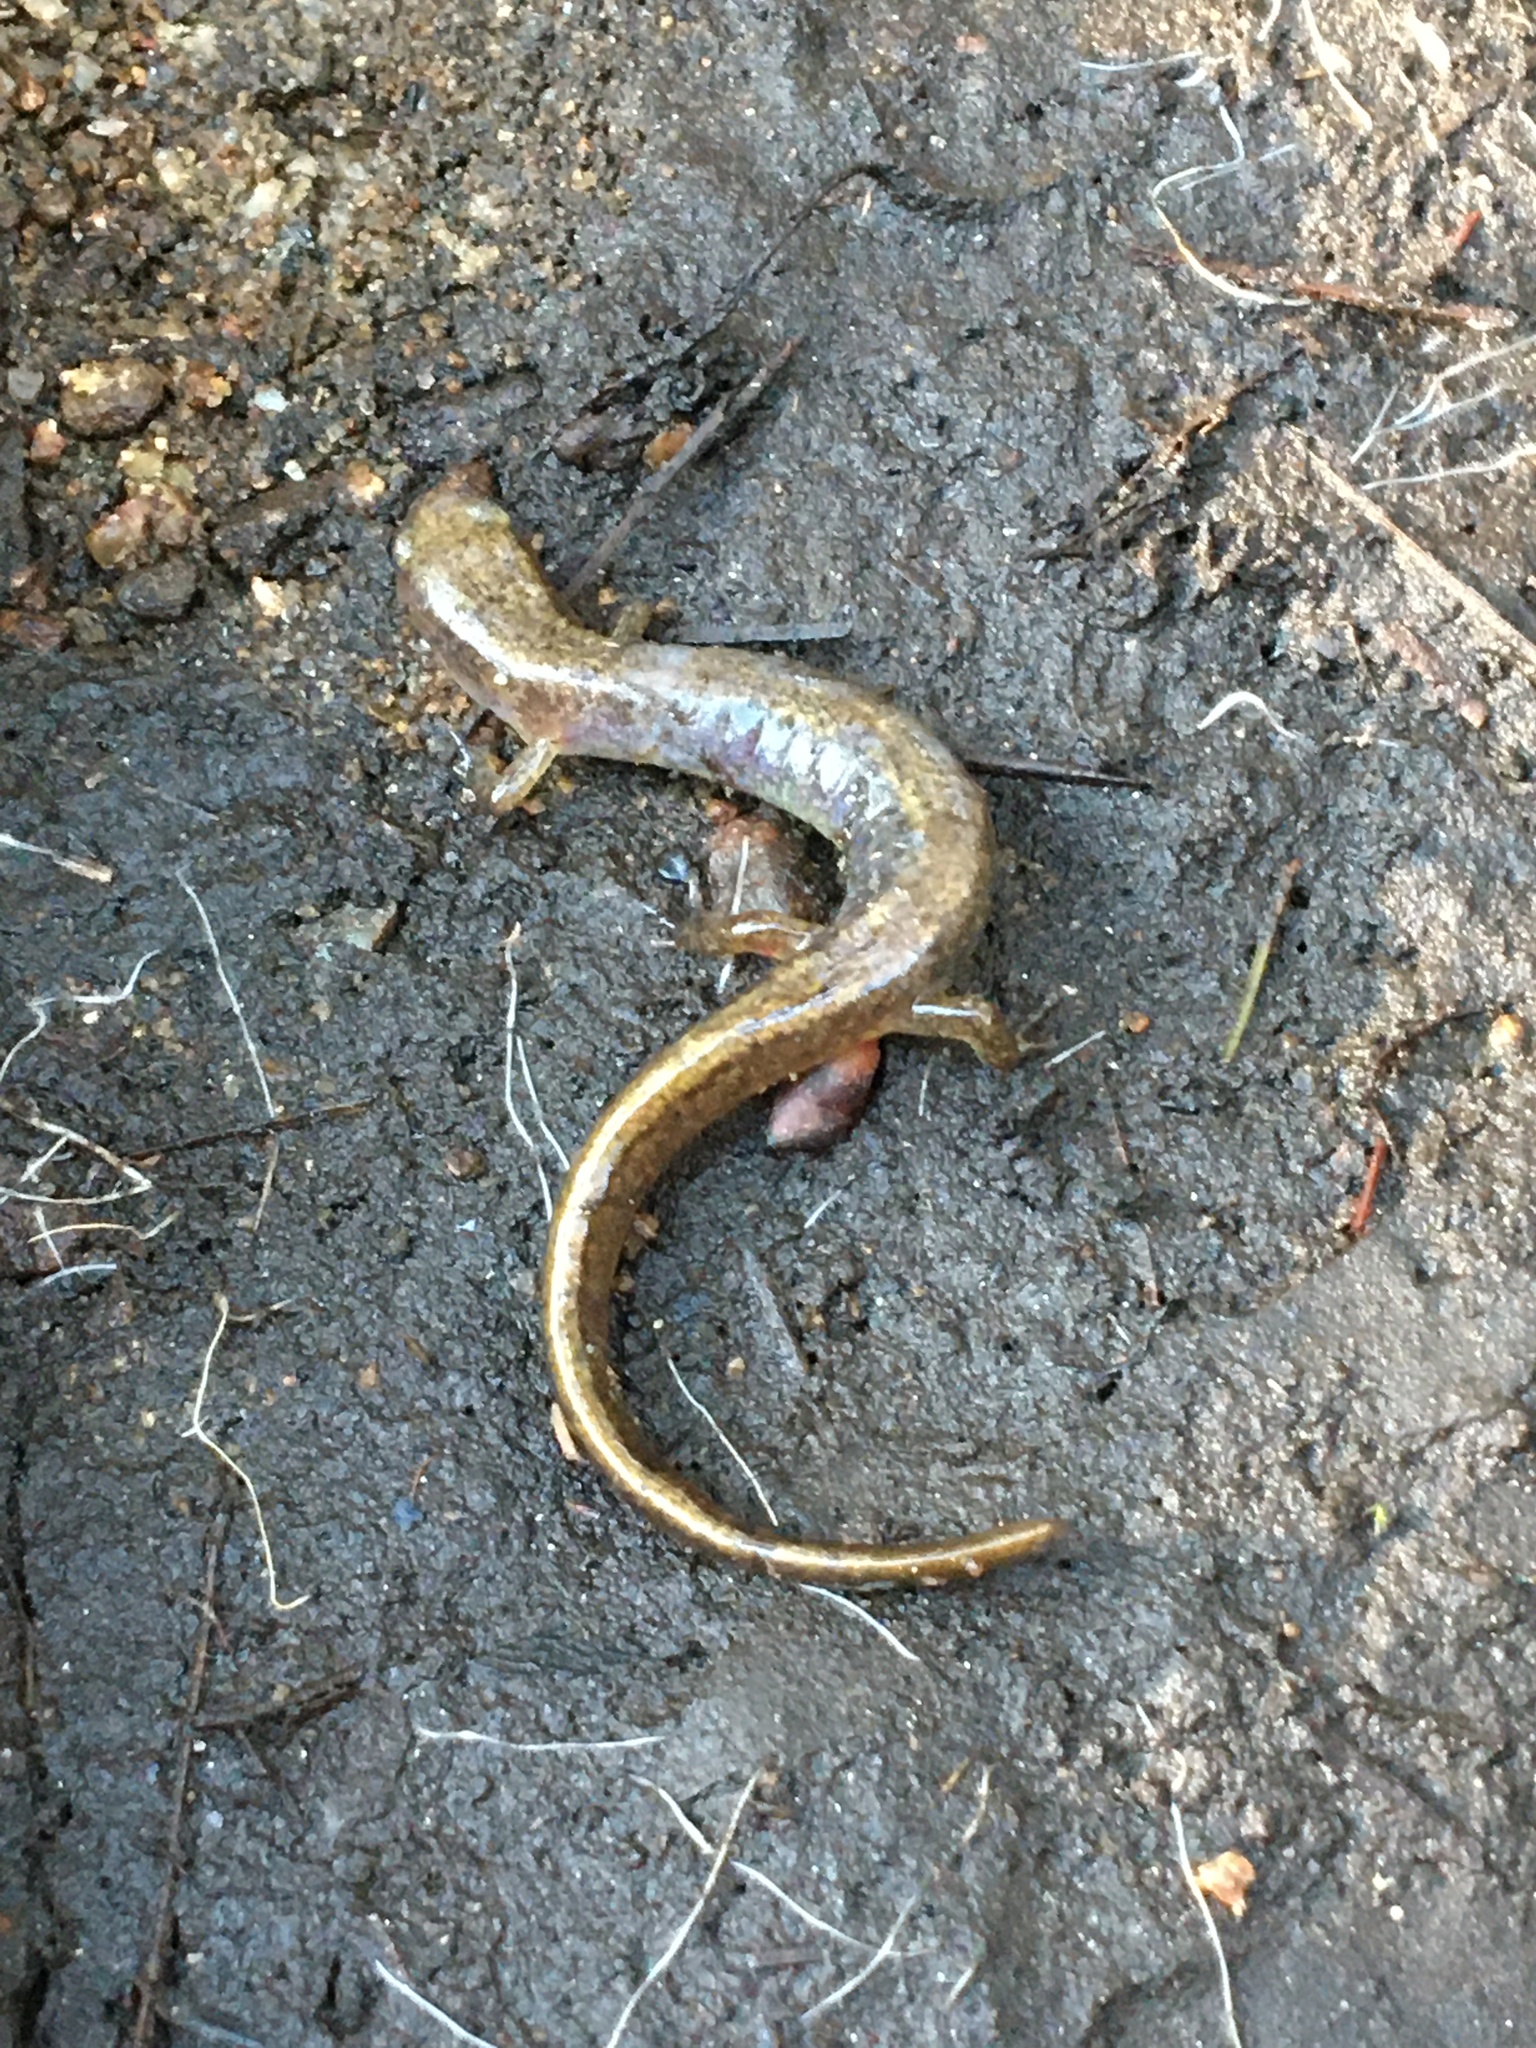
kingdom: Animalia
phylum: Chordata
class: Amphibia
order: Caudata
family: Plethodontidae
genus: Eurycea
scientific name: Eurycea bislineata
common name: Northern two-lined salamander
